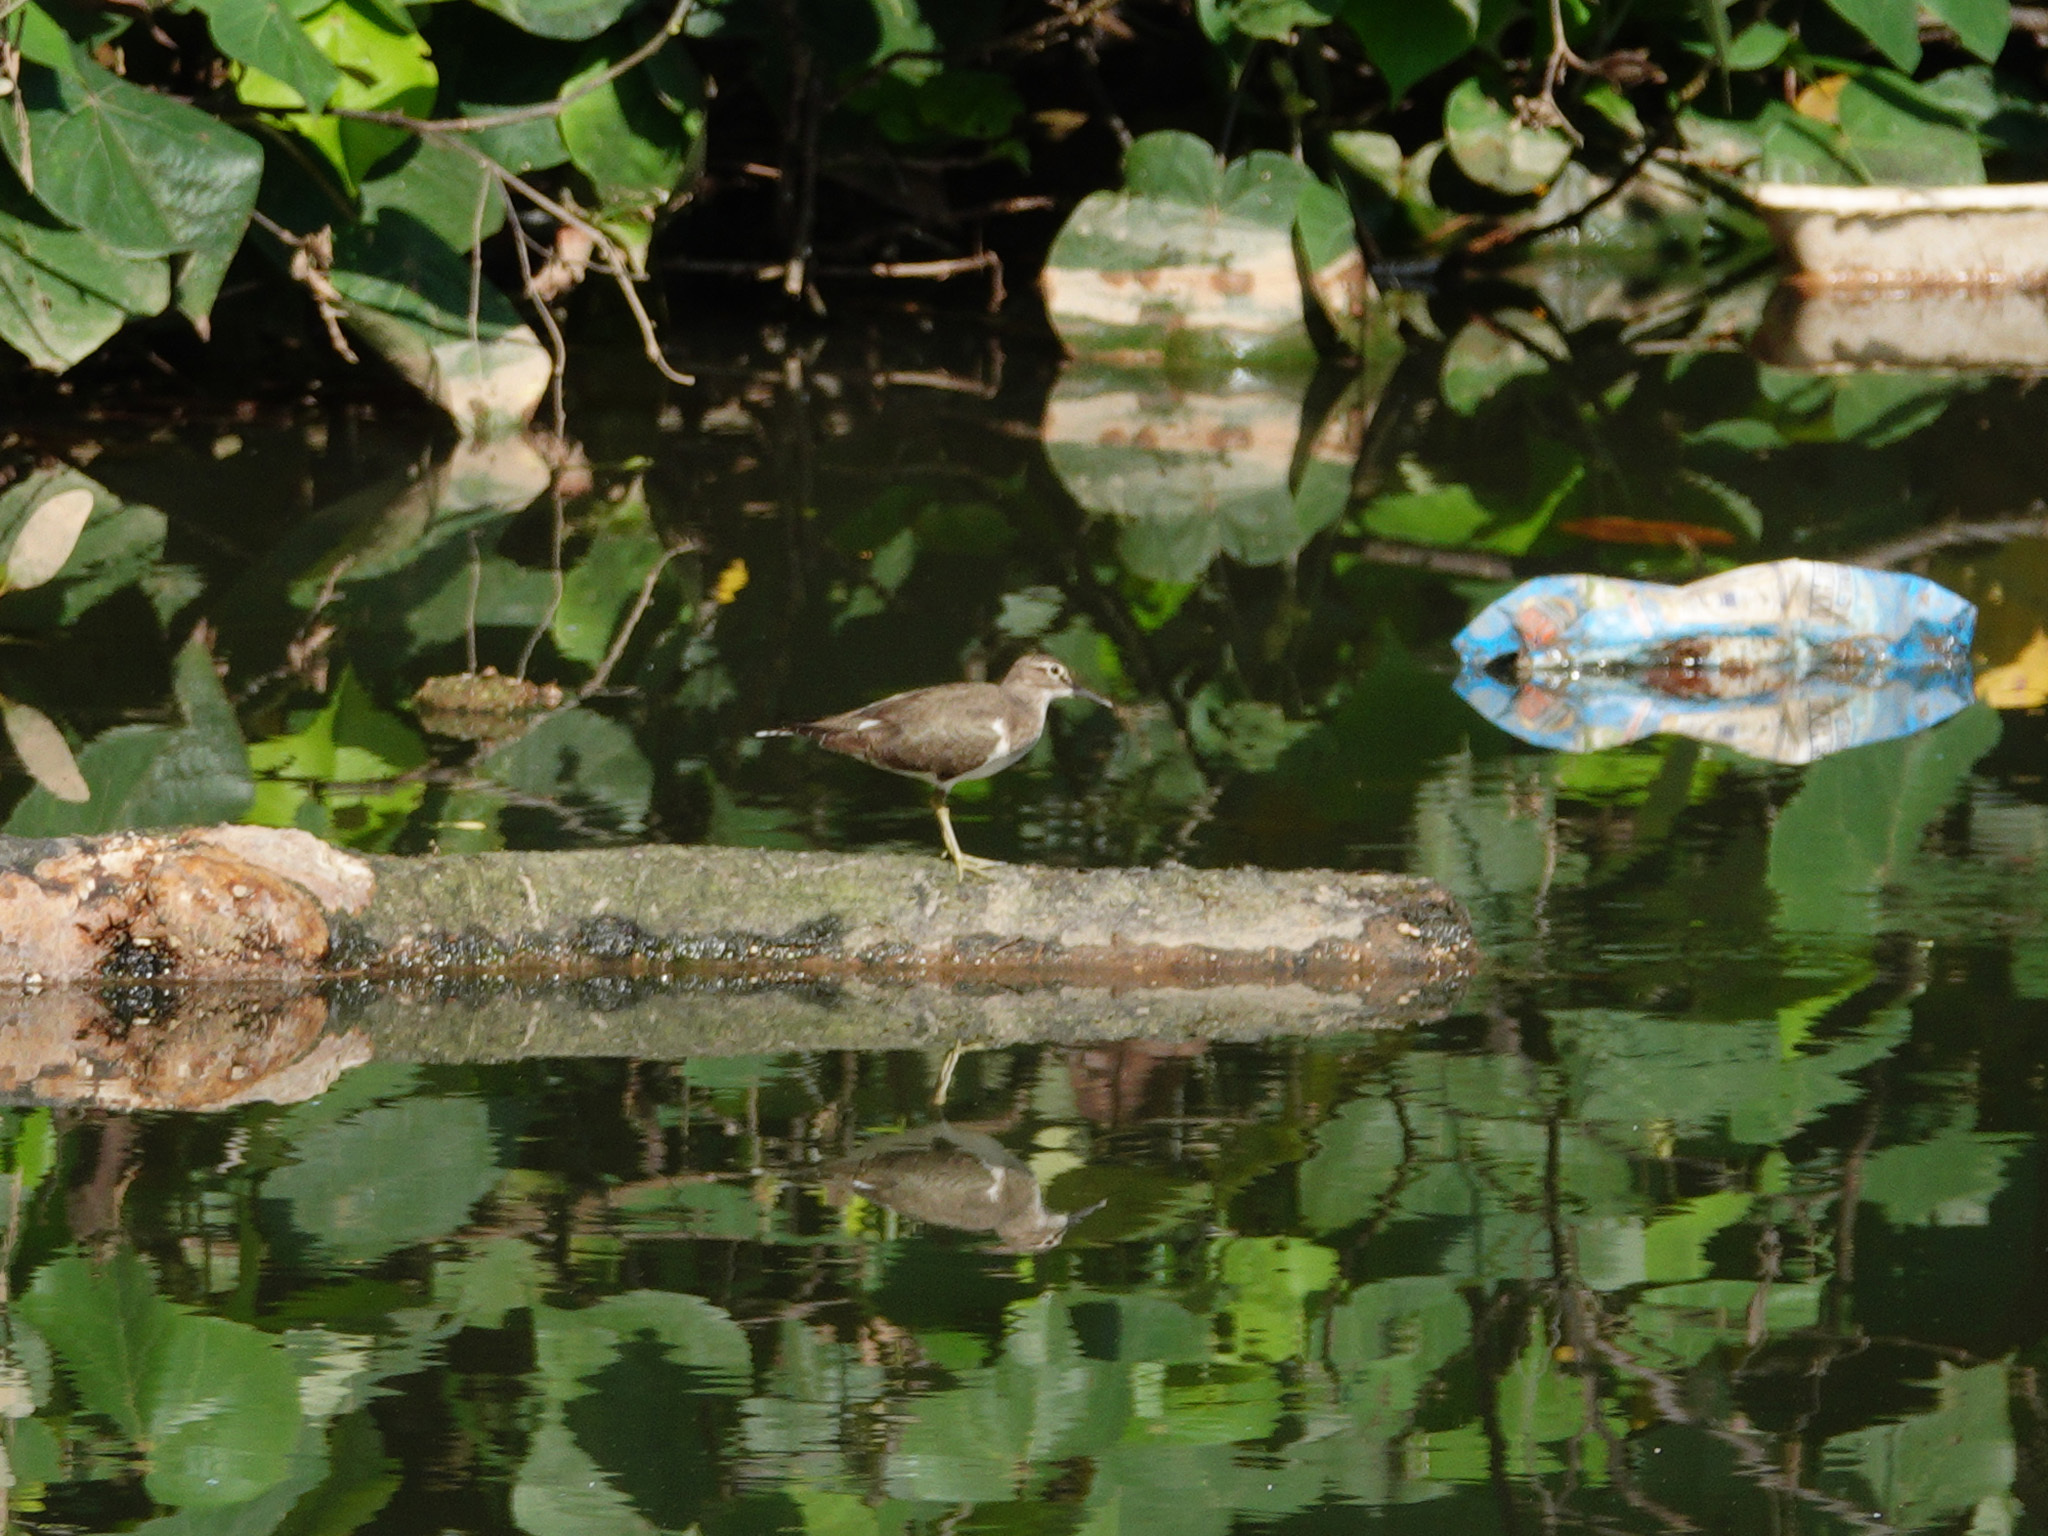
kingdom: Animalia
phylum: Chordata
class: Aves
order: Charadriiformes
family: Scolopacidae
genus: Actitis
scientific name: Actitis hypoleucos
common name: Common sandpiper
